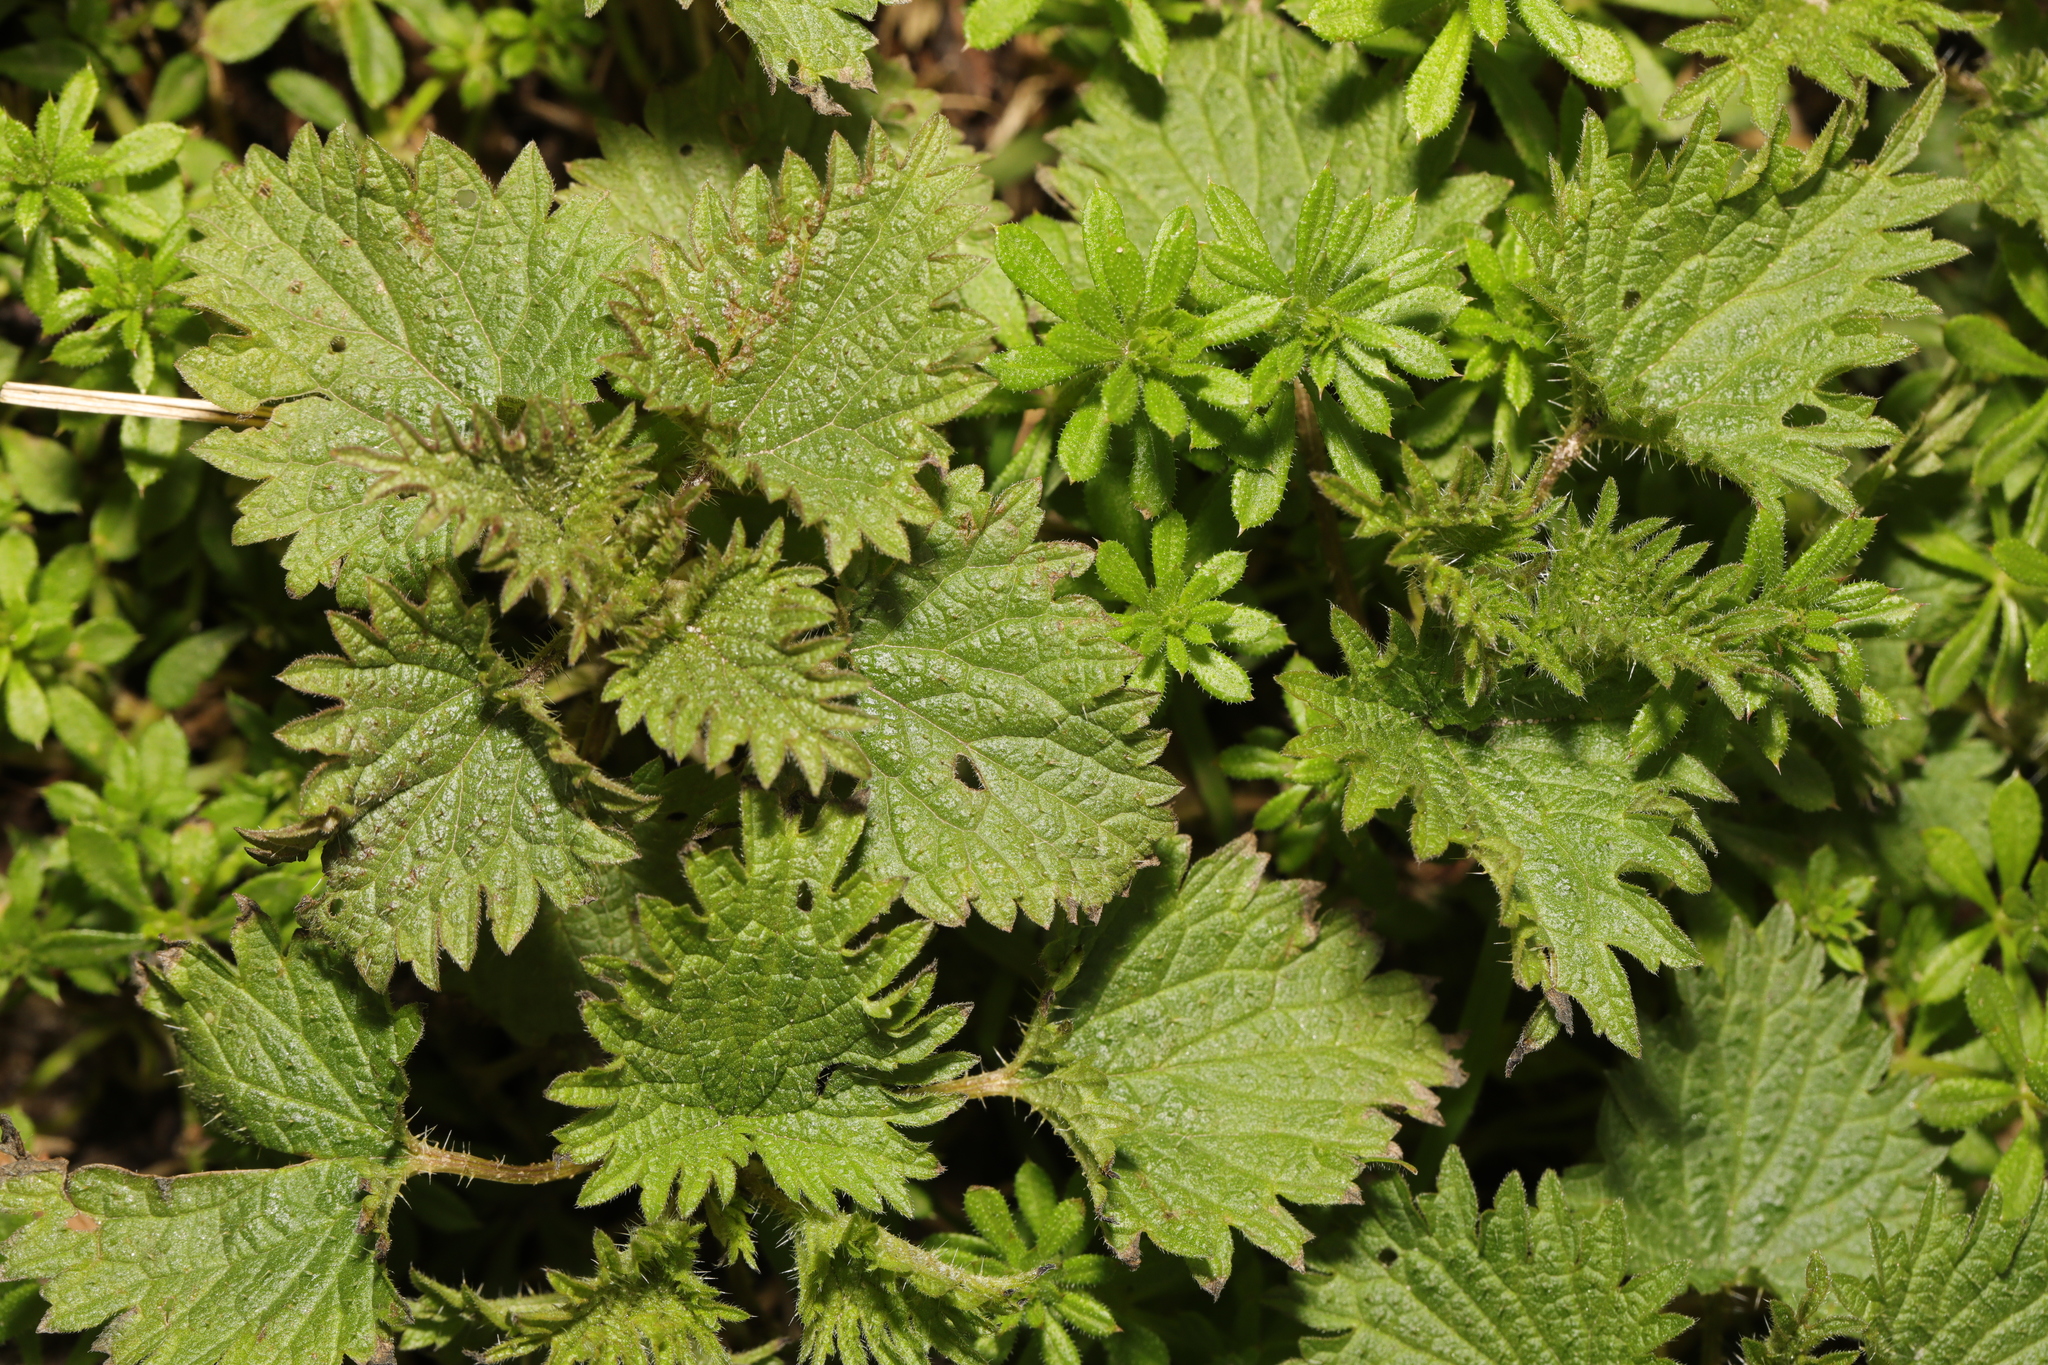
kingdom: Plantae
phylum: Tracheophyta
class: Magnoliopsida
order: Rosales
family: Urticaceae
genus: Urtica
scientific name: Urtica dioica
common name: Common nettle
